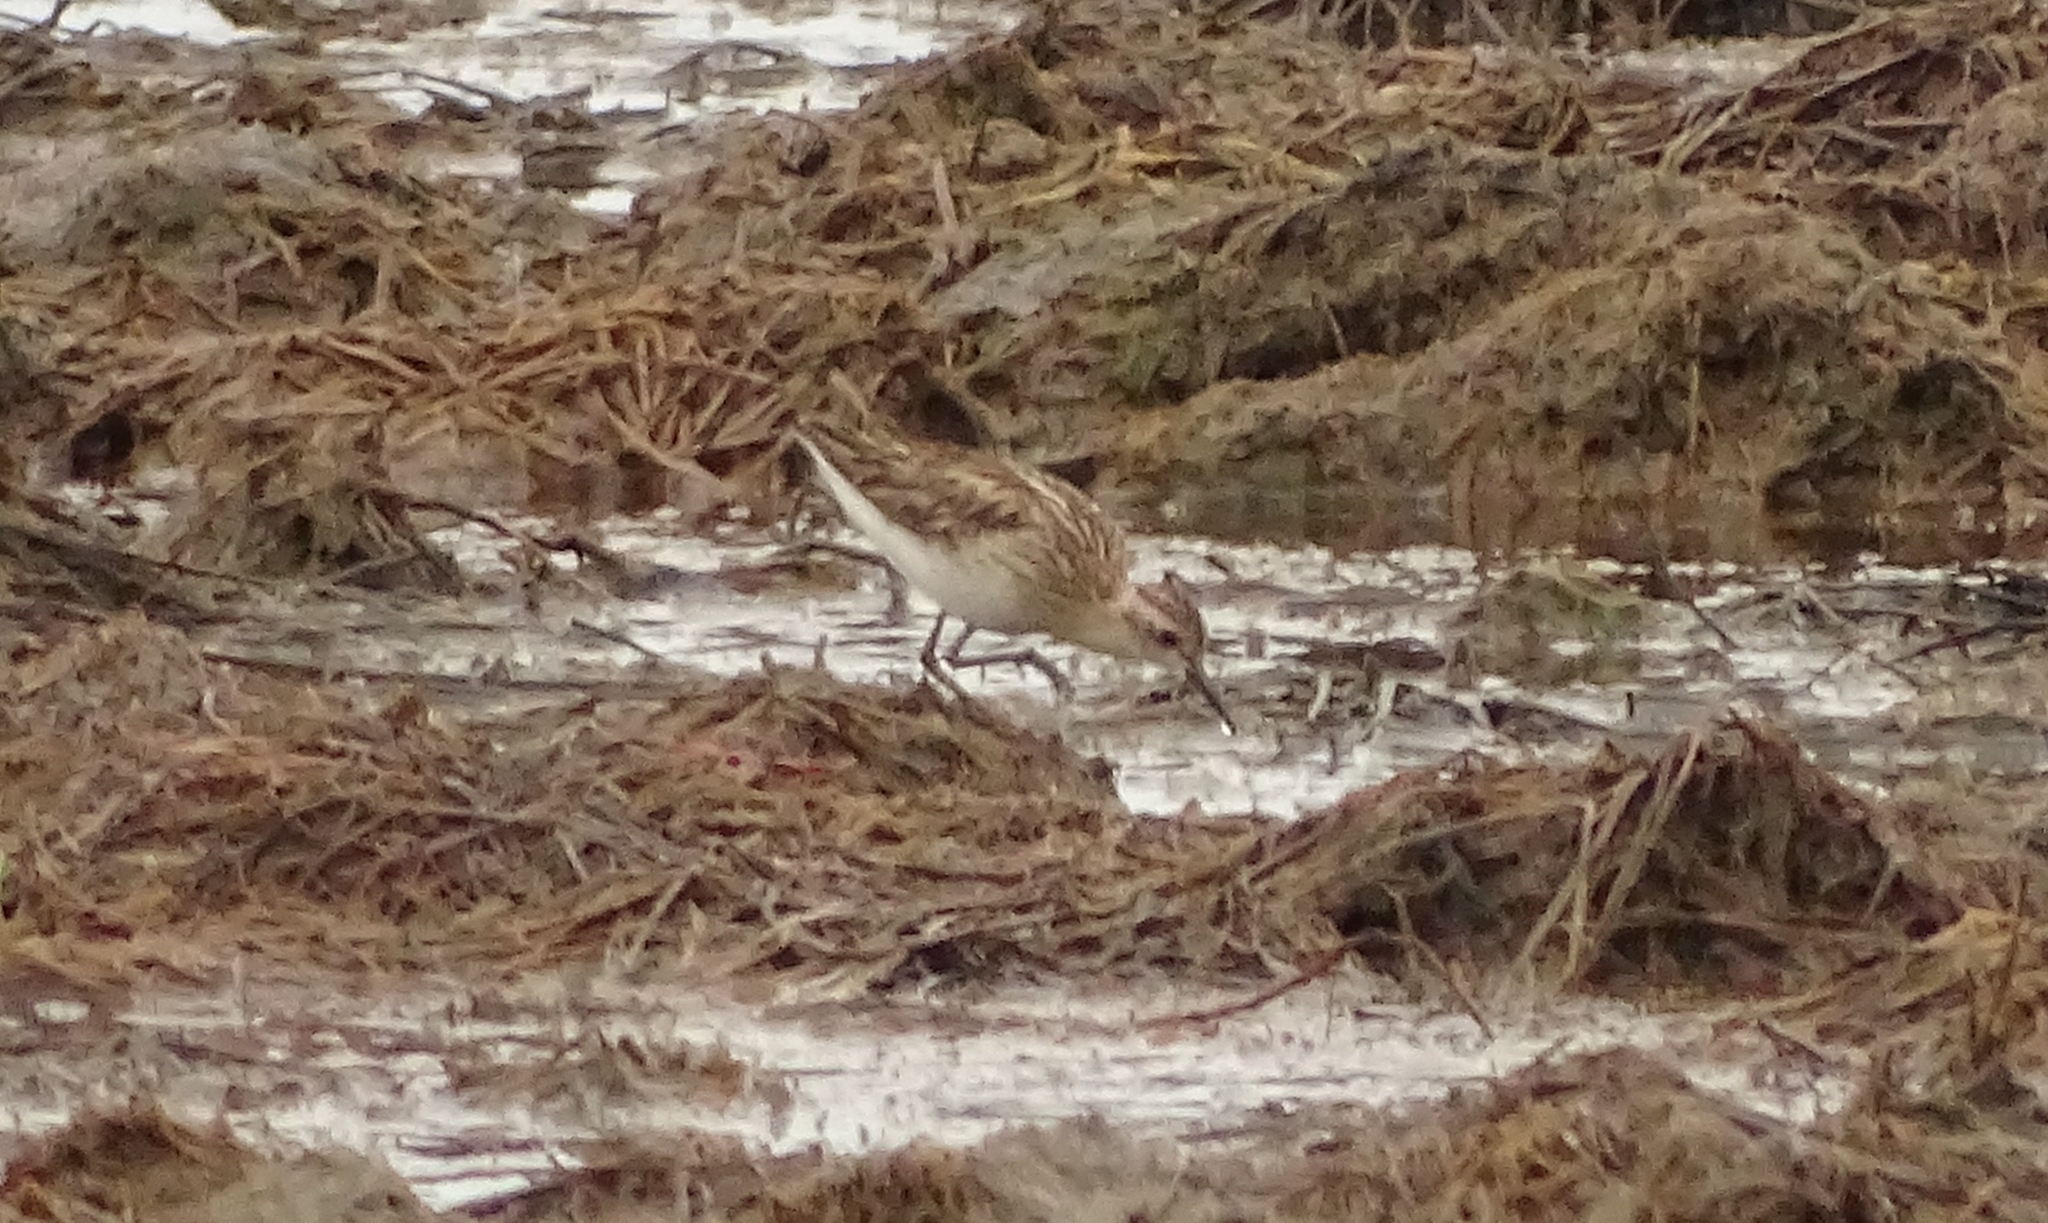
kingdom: Animalia
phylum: Chordata
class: Aves
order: Charadriiformes
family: Scolopacidae
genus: Calidris
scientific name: Calidris subminuta
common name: Long-toed stint
